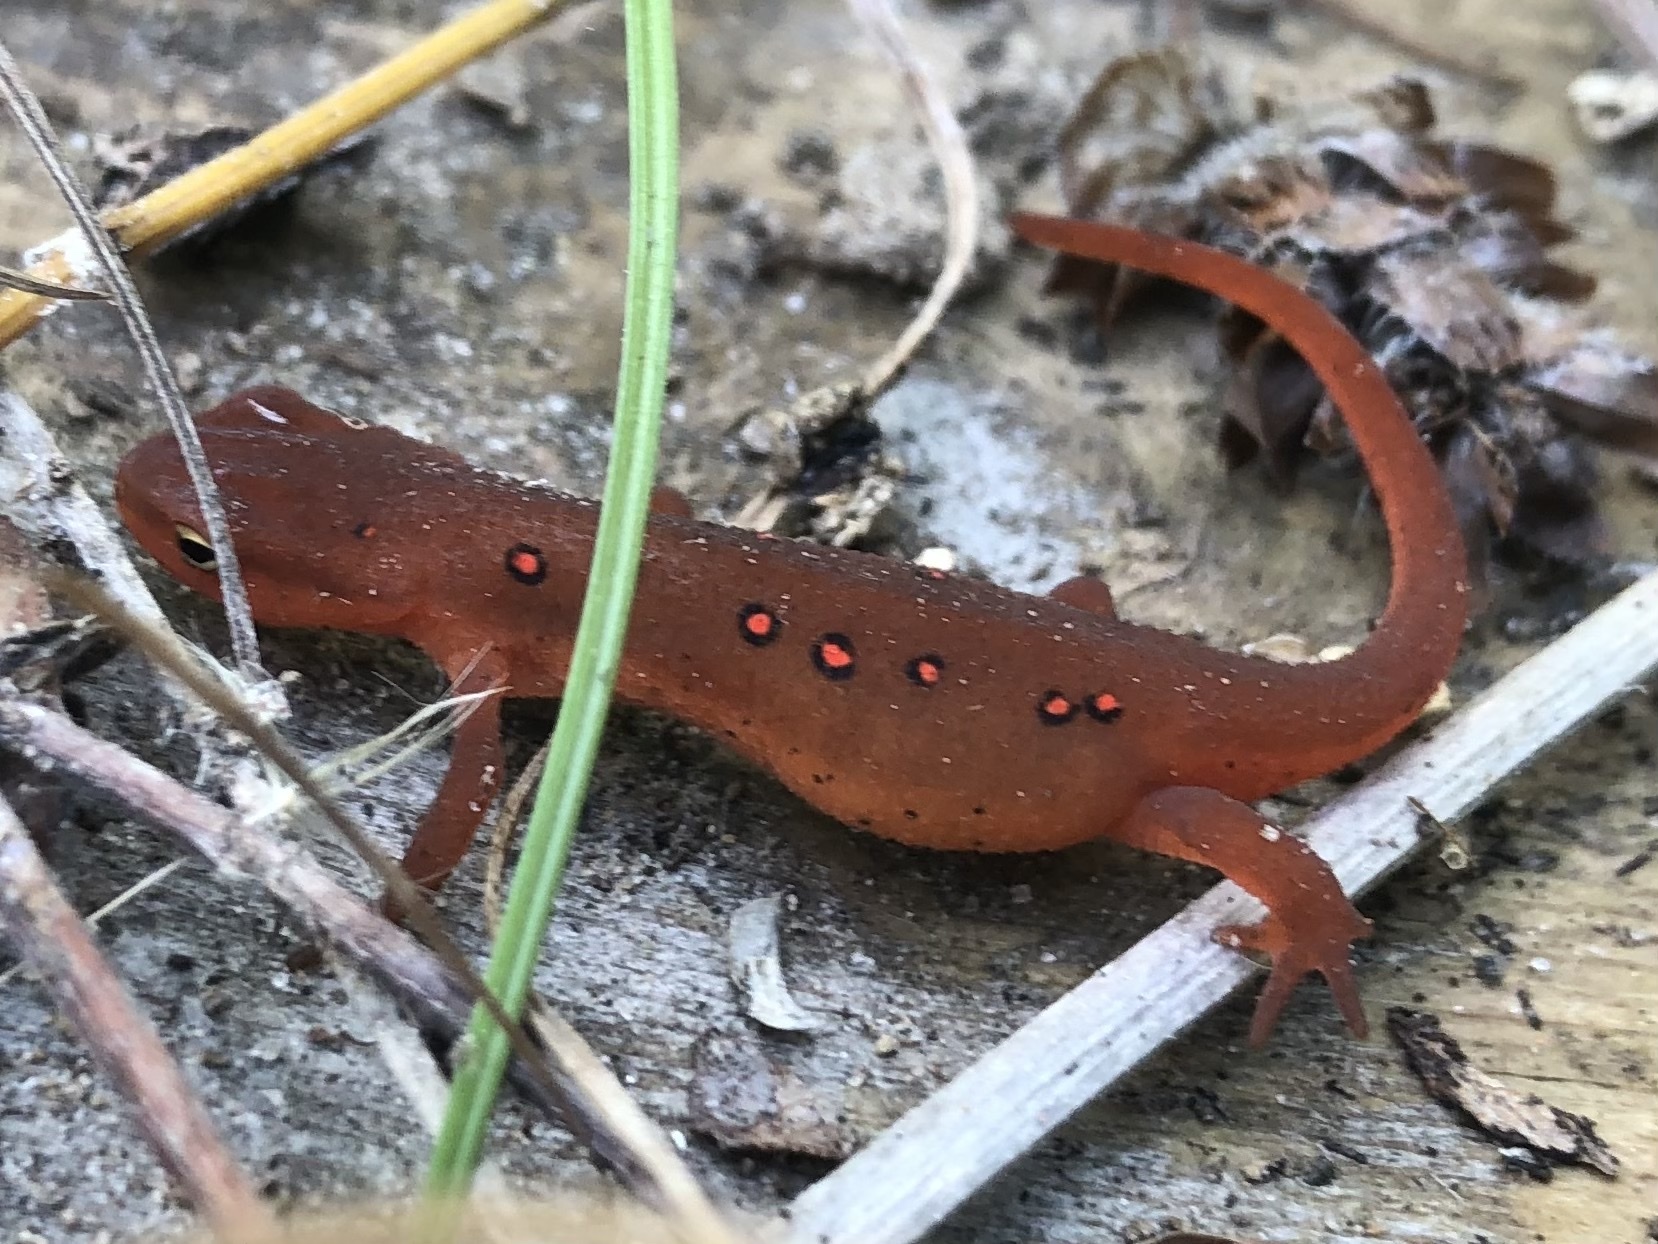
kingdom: Animalia
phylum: Chordata
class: Amphibia
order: Caudata
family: Salamandridae
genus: Notophthalmus
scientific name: Notophthalmus viridescens
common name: Eastern newt
